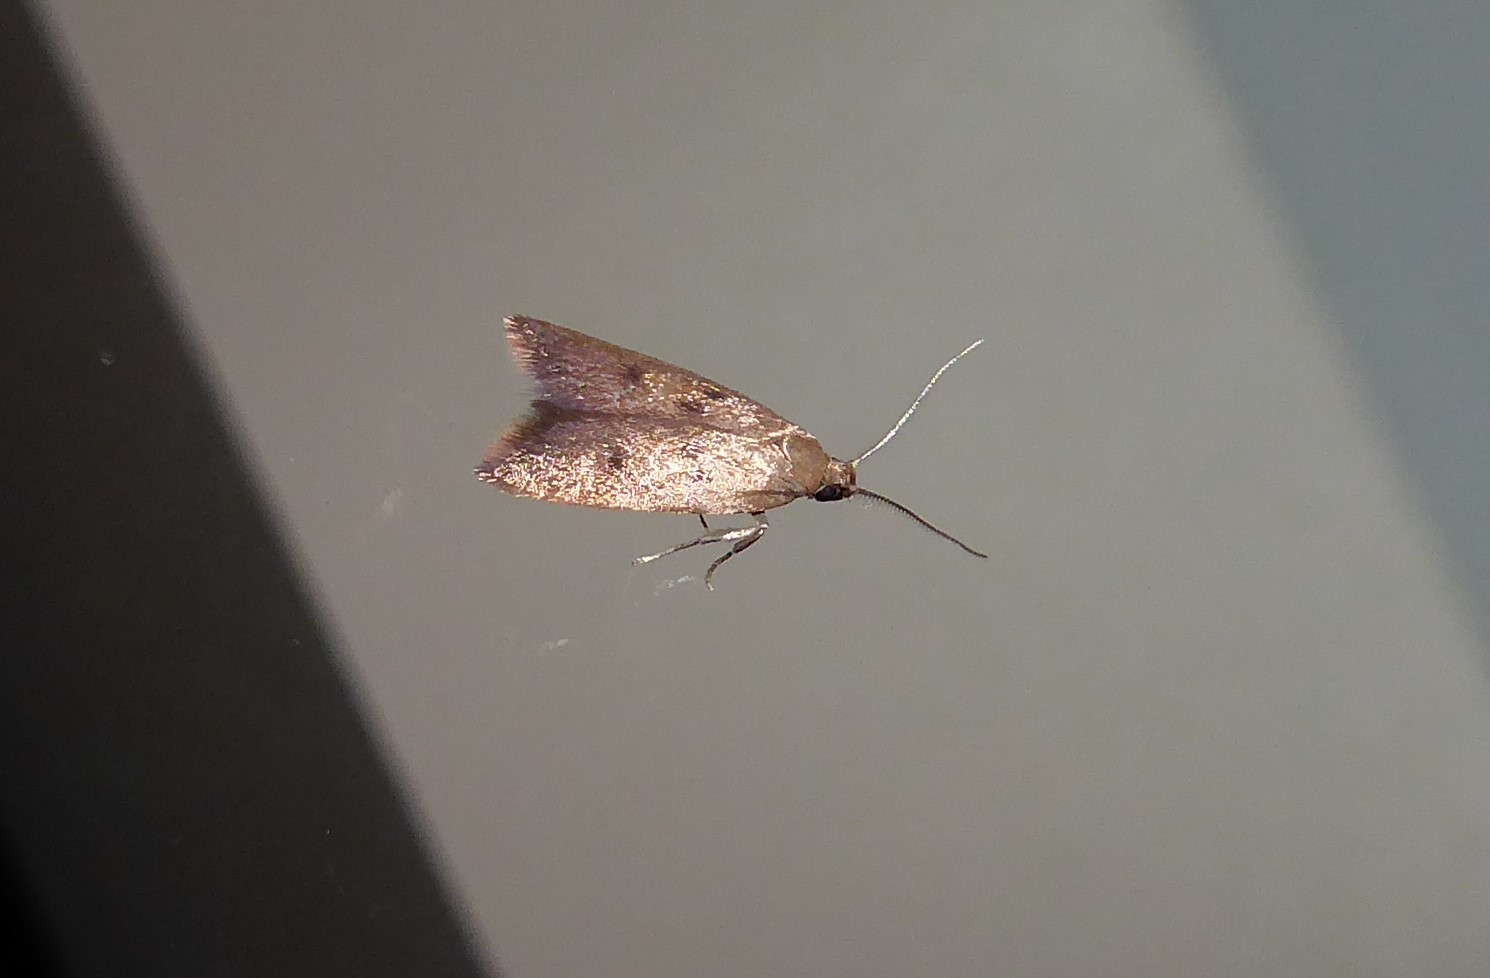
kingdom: Animalia
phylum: Arthropoda
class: Insecta
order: Lepidoptera
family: Oecophoridae
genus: Tachystola
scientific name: Tachystola acroxantha
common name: Ruddy streak
